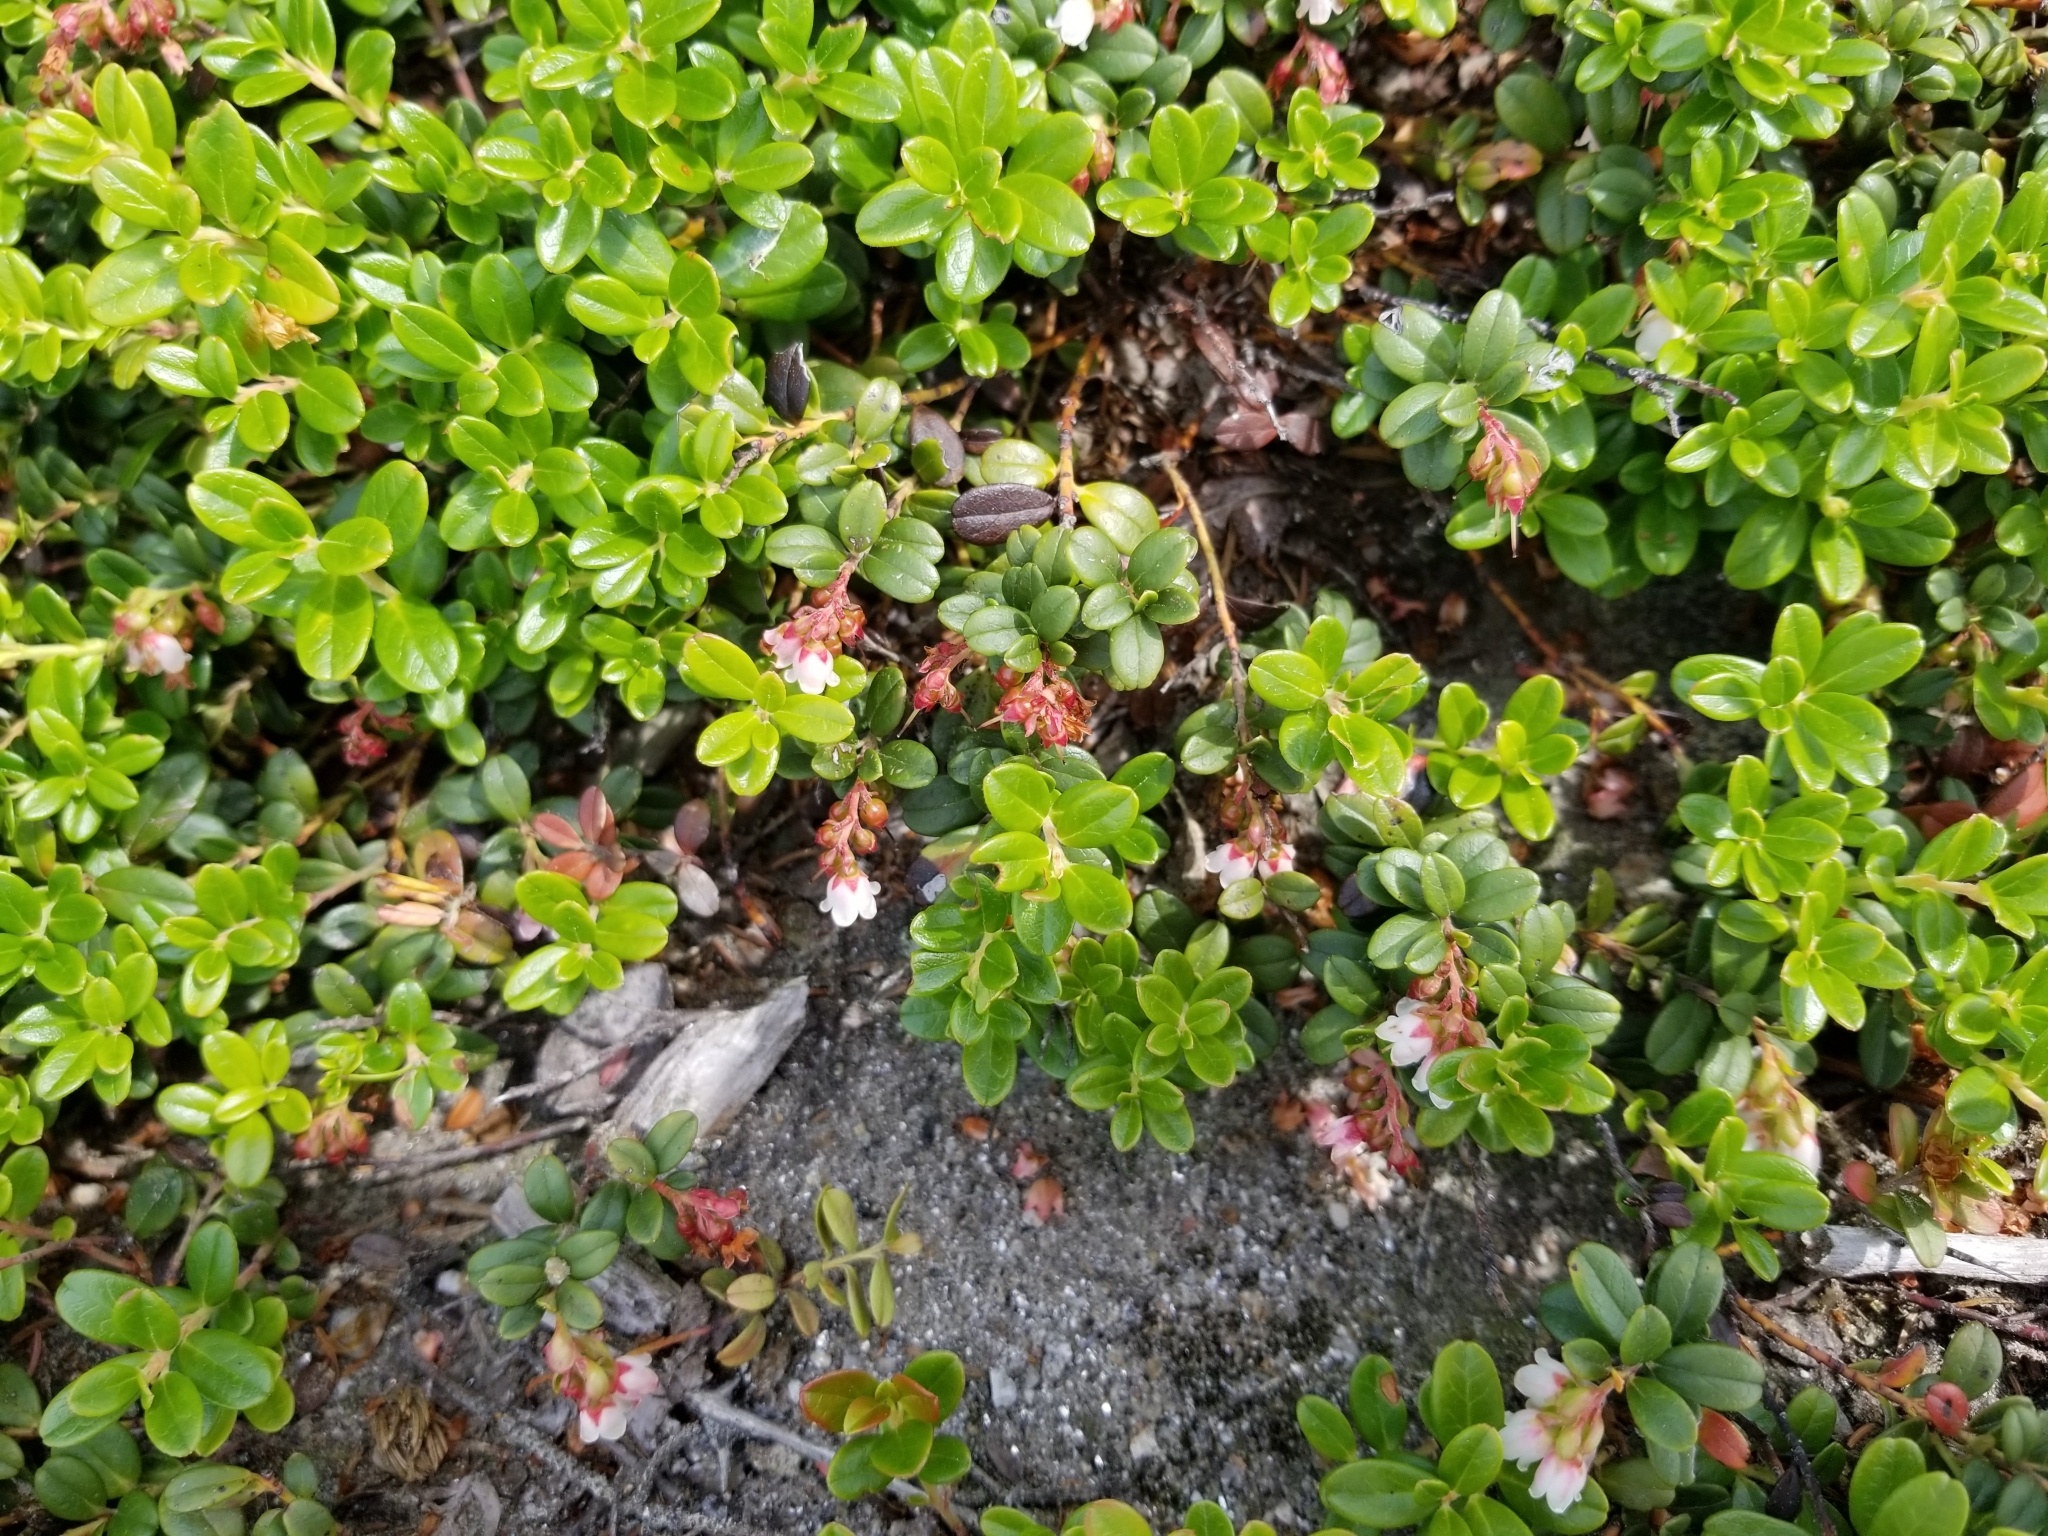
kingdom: Plantae
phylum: Tracheophyta
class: Magnoliopsida
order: Ericales
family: Ericaceae
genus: Vaccinium
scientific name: Vaccinium vitis-idaea
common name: Cowberry
